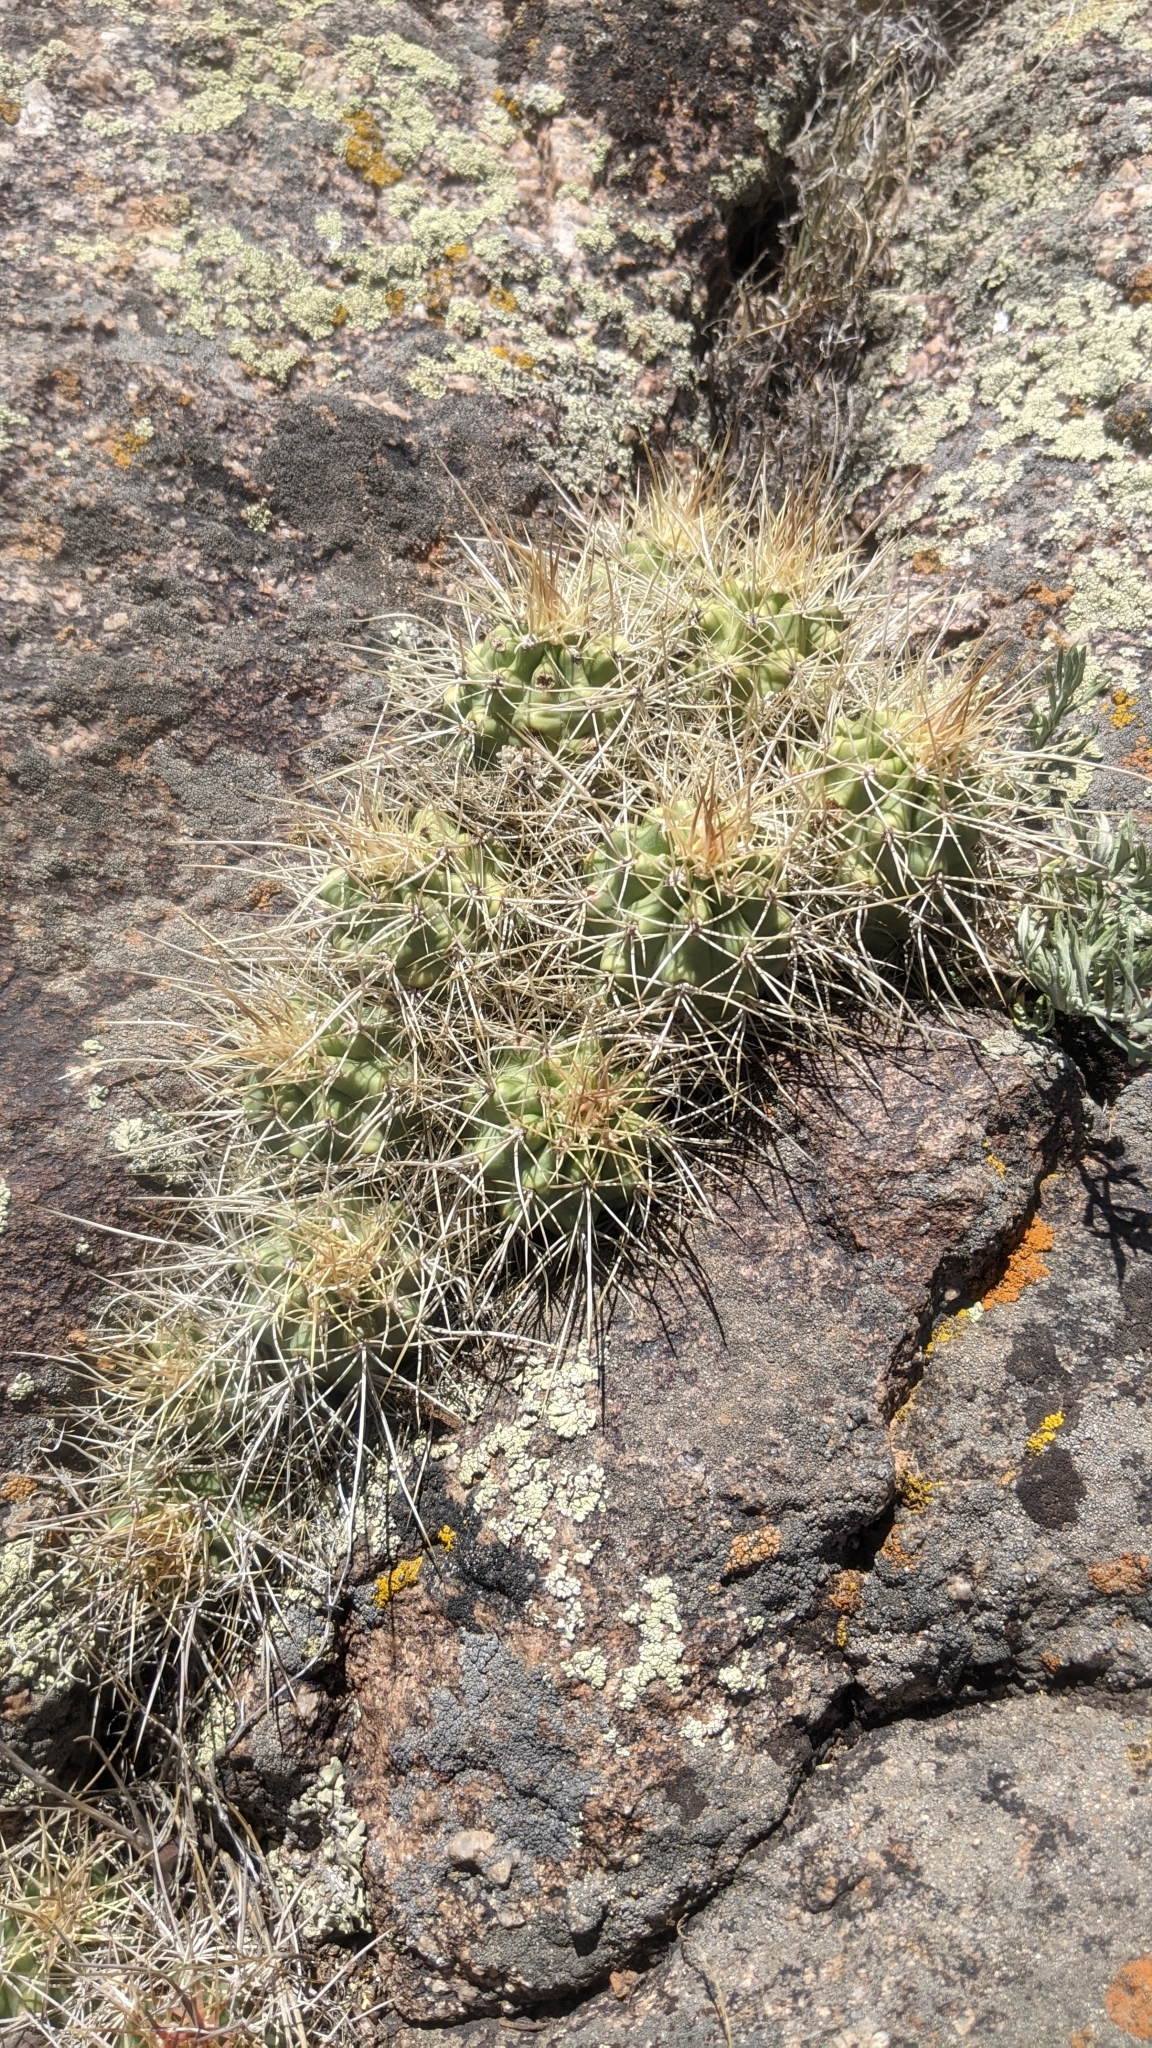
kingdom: Plantae
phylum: Tracheophyta
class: Magnoliopsida
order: Caryophyllales
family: Cactaceae
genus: Echinocereus
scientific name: Echinocereus triglochidiatus
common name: Claretcup hedgehog
